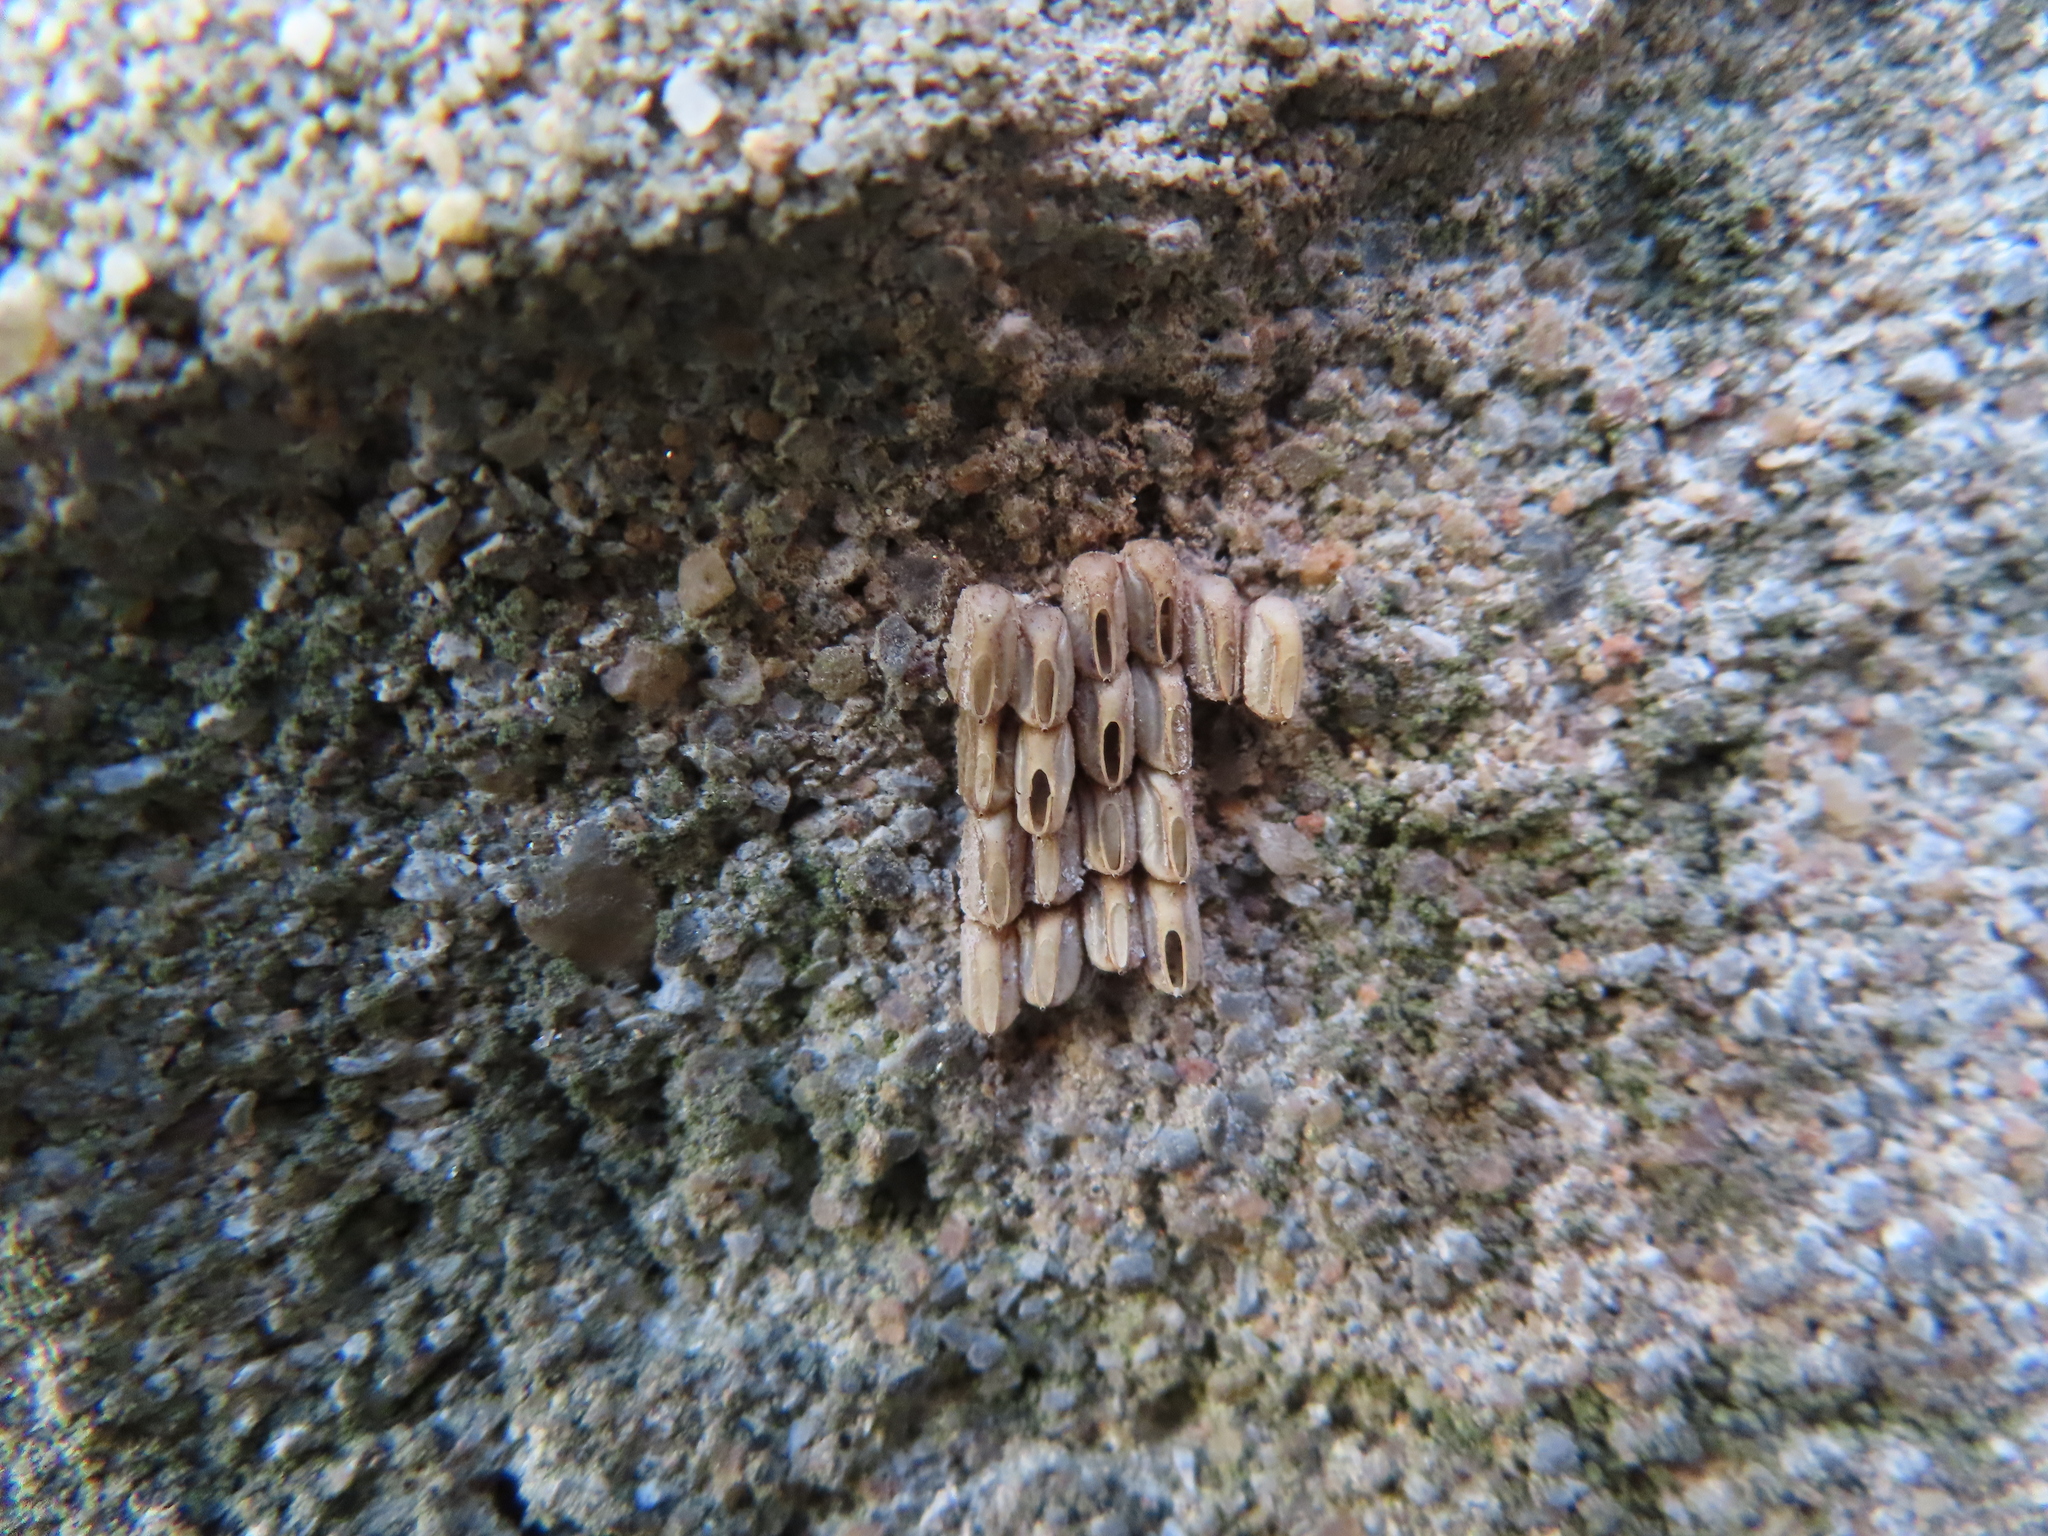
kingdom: Animalia
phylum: Arthropoda
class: Insecta
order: Hemiptera
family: Fulgoridae
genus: Lycorma
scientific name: Lycorma delicatula
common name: Spotted lanternfly
